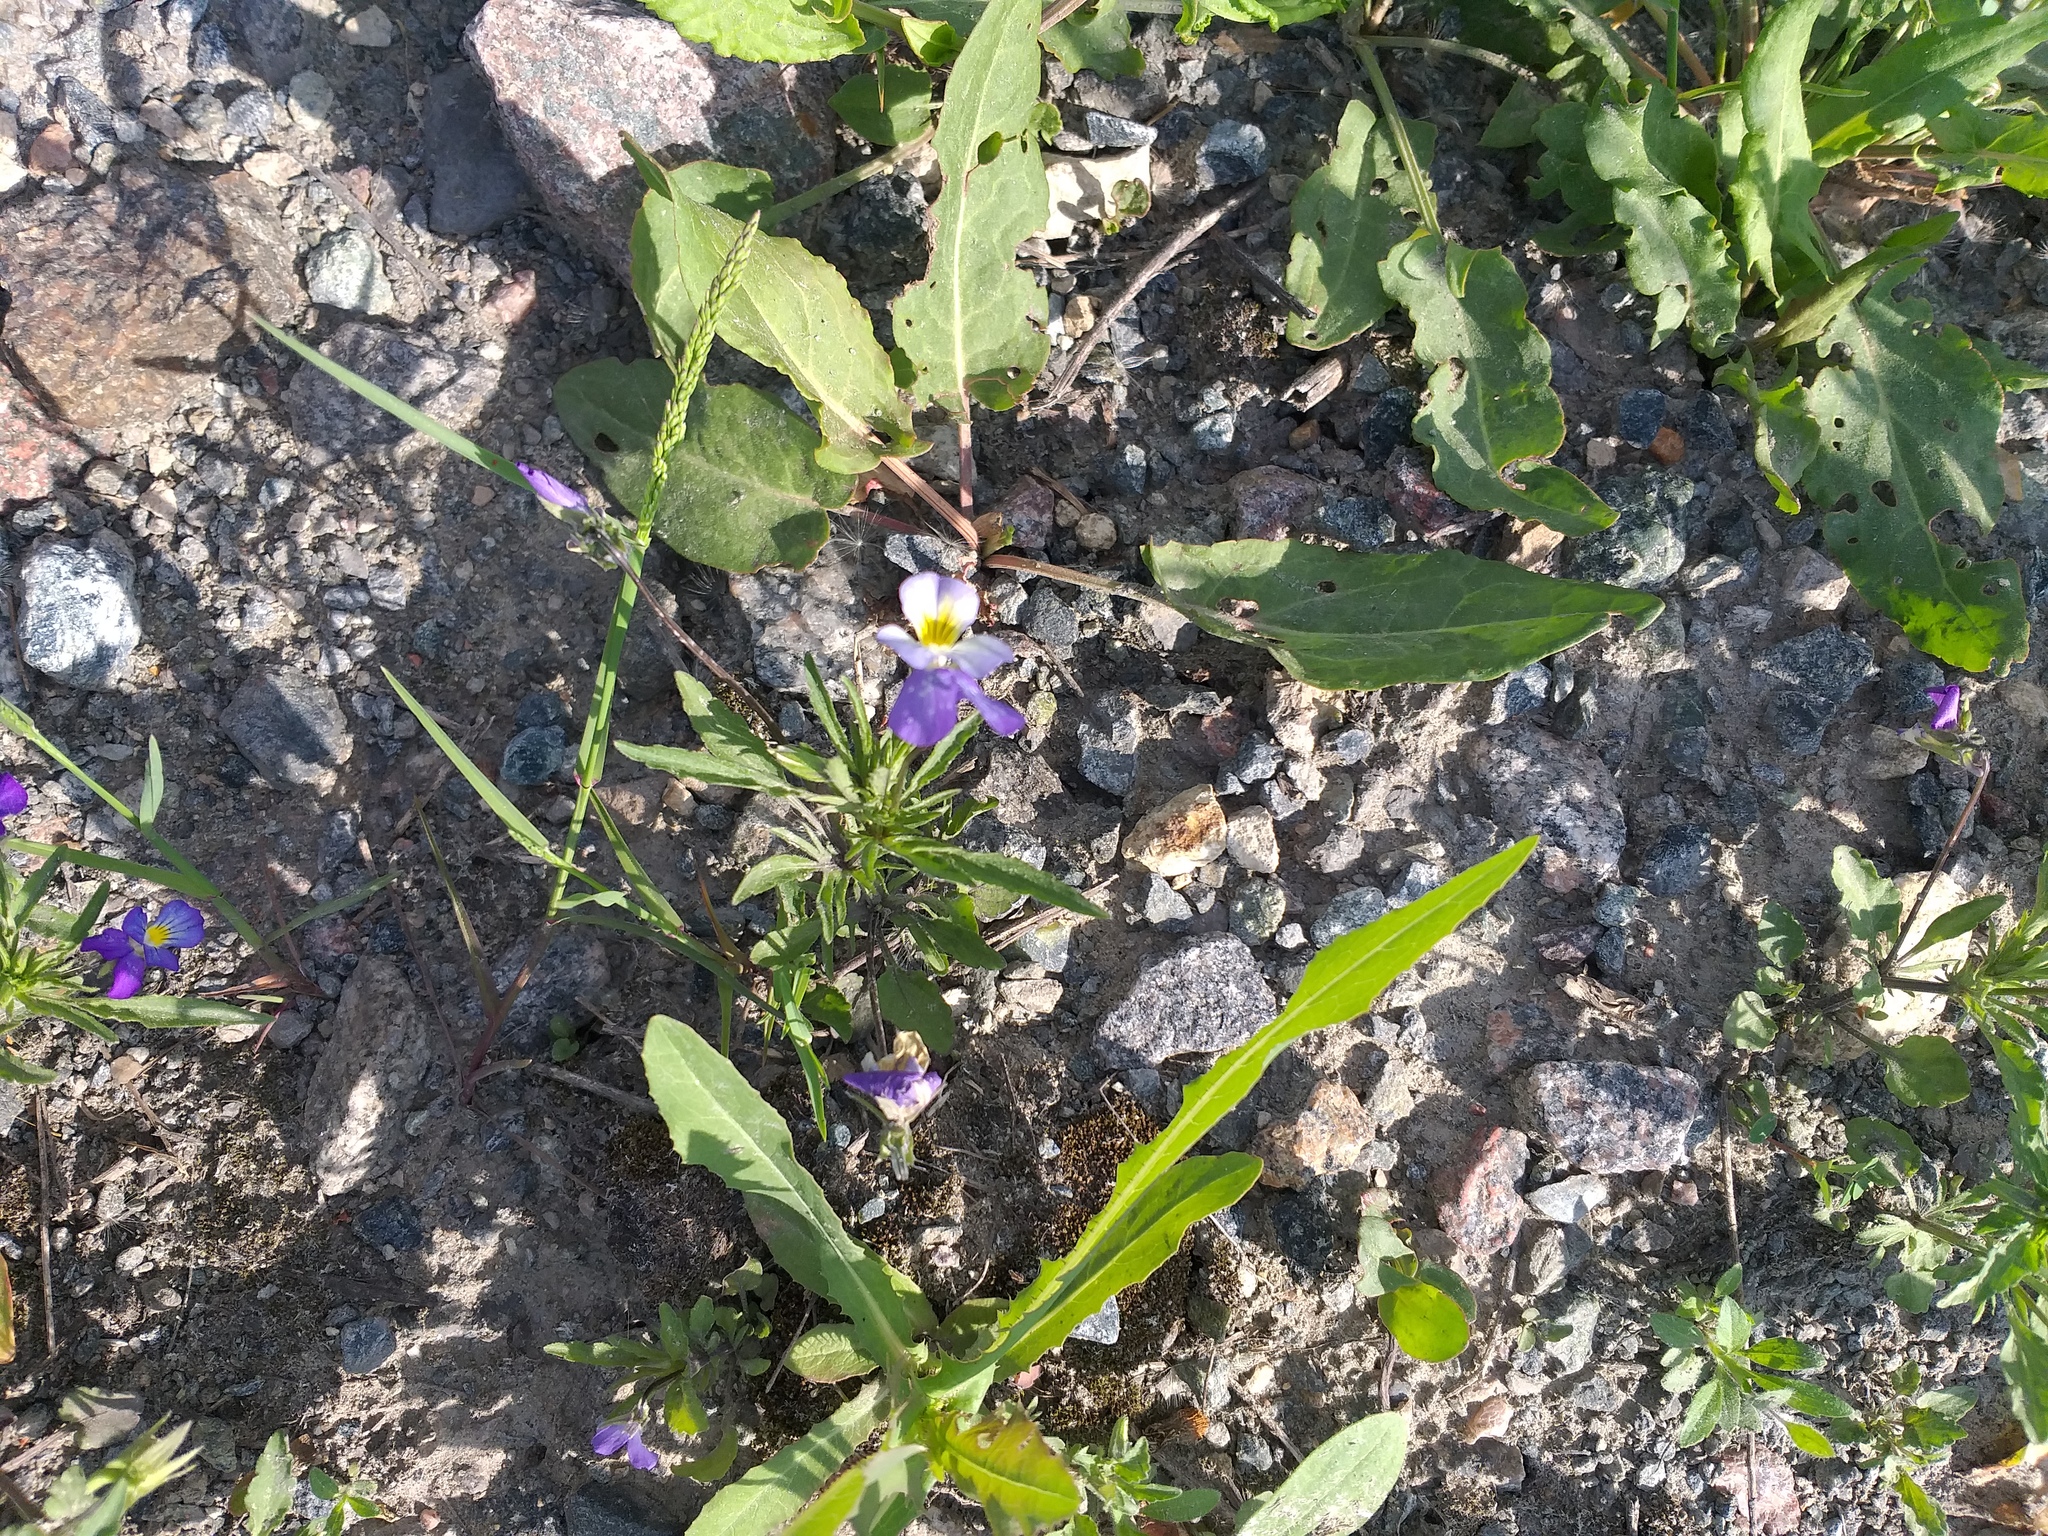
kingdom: Plantae
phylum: Tracheophyta
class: Magnoliopsida
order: Malpighiales
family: Violaceae
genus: Viola
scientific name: Viola tricolor
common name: Pansy
